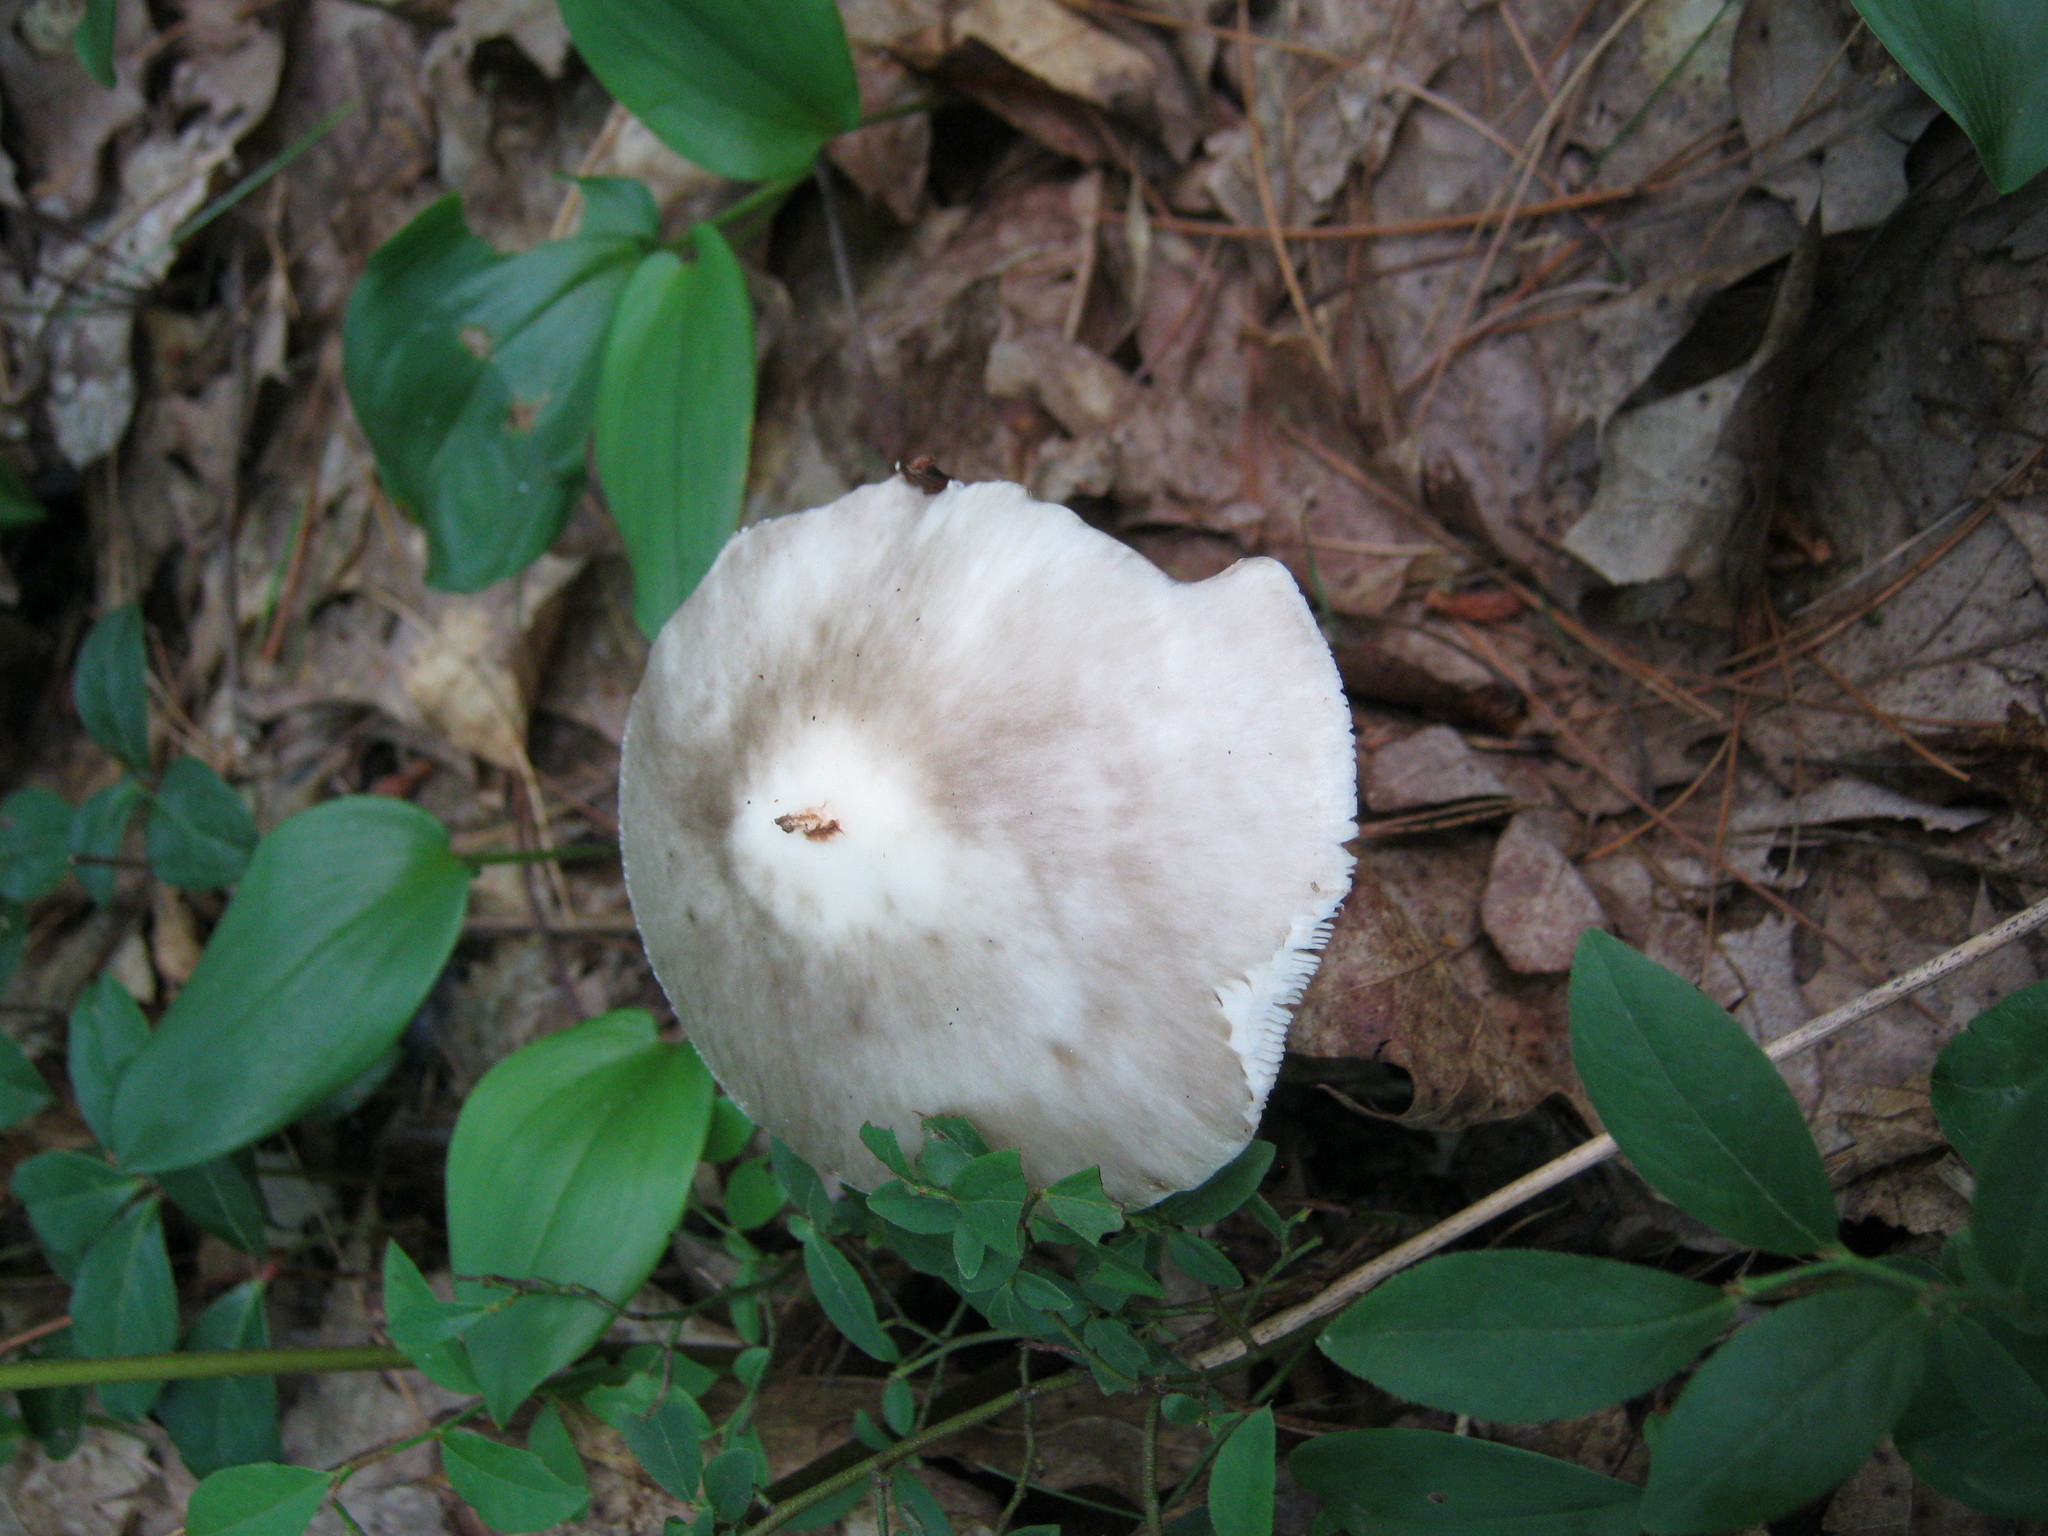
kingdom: Fungi
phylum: Basidiomycota
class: Agaricomycetes
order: Agaricales
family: Amanitaceae
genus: Amanita
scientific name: Amanita brunnescens
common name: Brown american star-footed amanita
